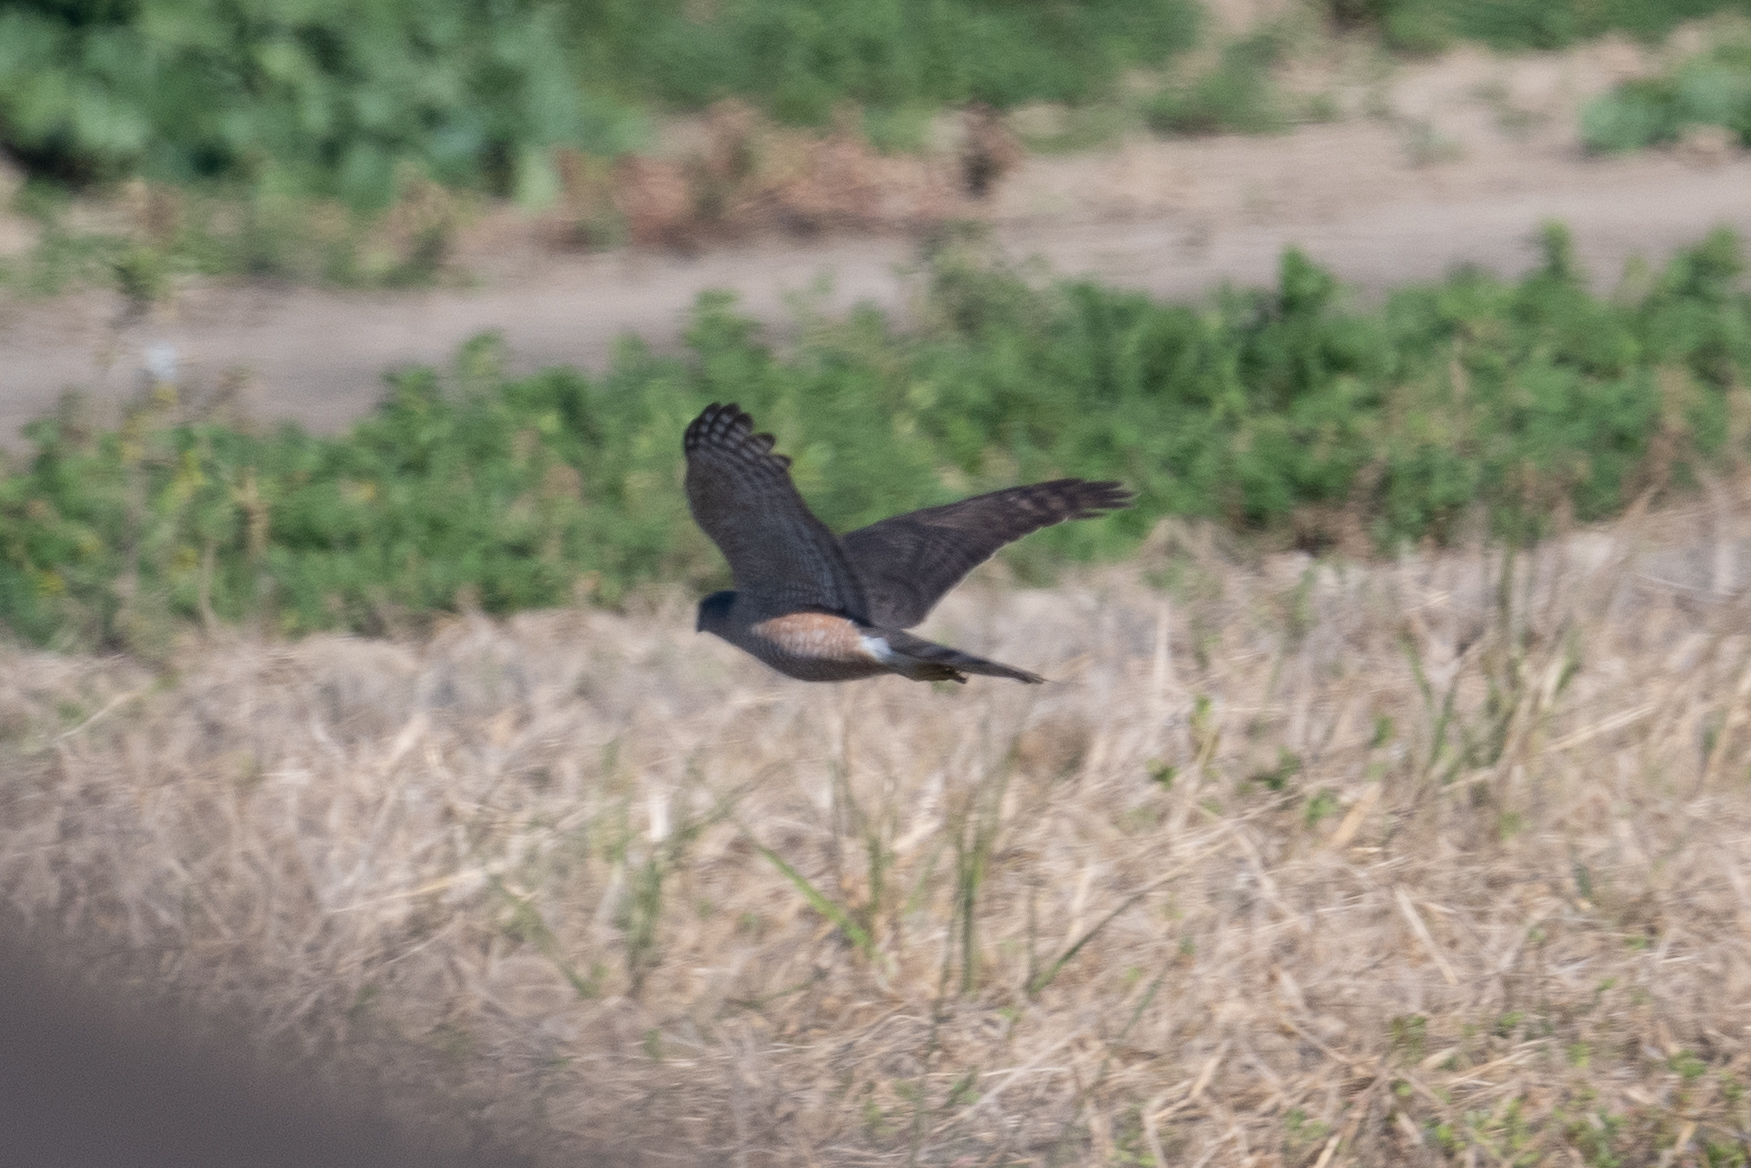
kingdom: Animalia
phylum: Chordata
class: Aves
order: Accipitriformes
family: Accipitridae
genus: Accipiter
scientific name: Accipiter cooperii
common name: Cooper's hawk
